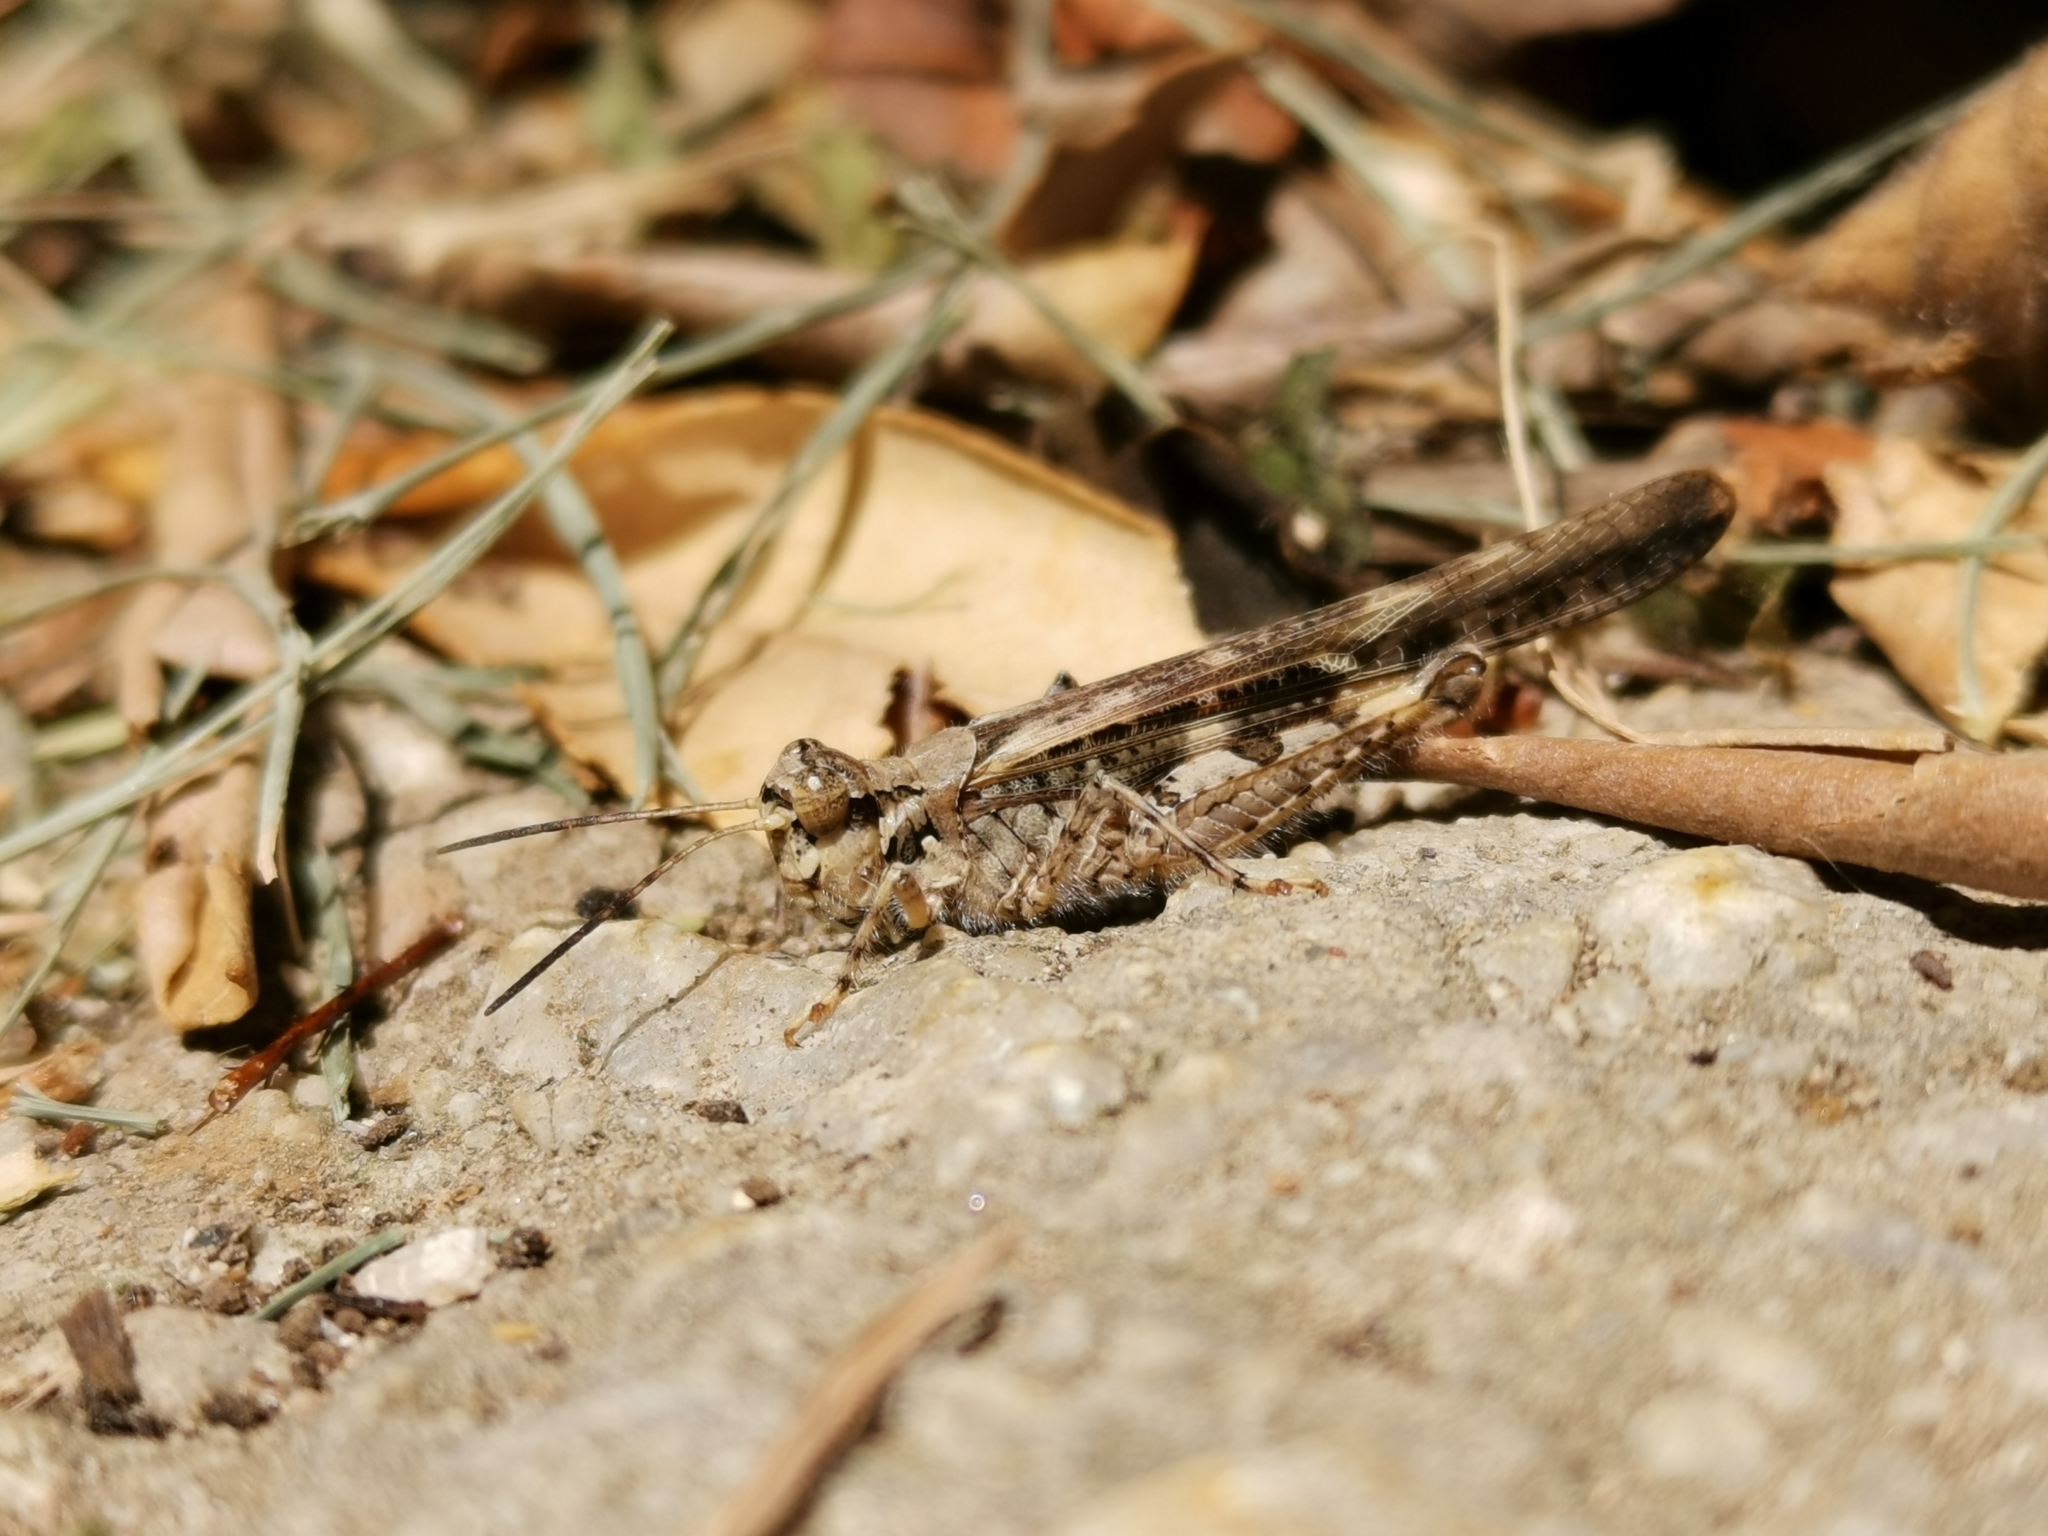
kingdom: Animalia
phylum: Arthropoda
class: Insecta
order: Orthoptera
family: Acrididae
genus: Acrotylus
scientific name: Acrotylus patruelis
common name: Slender burrowing grasshopper
